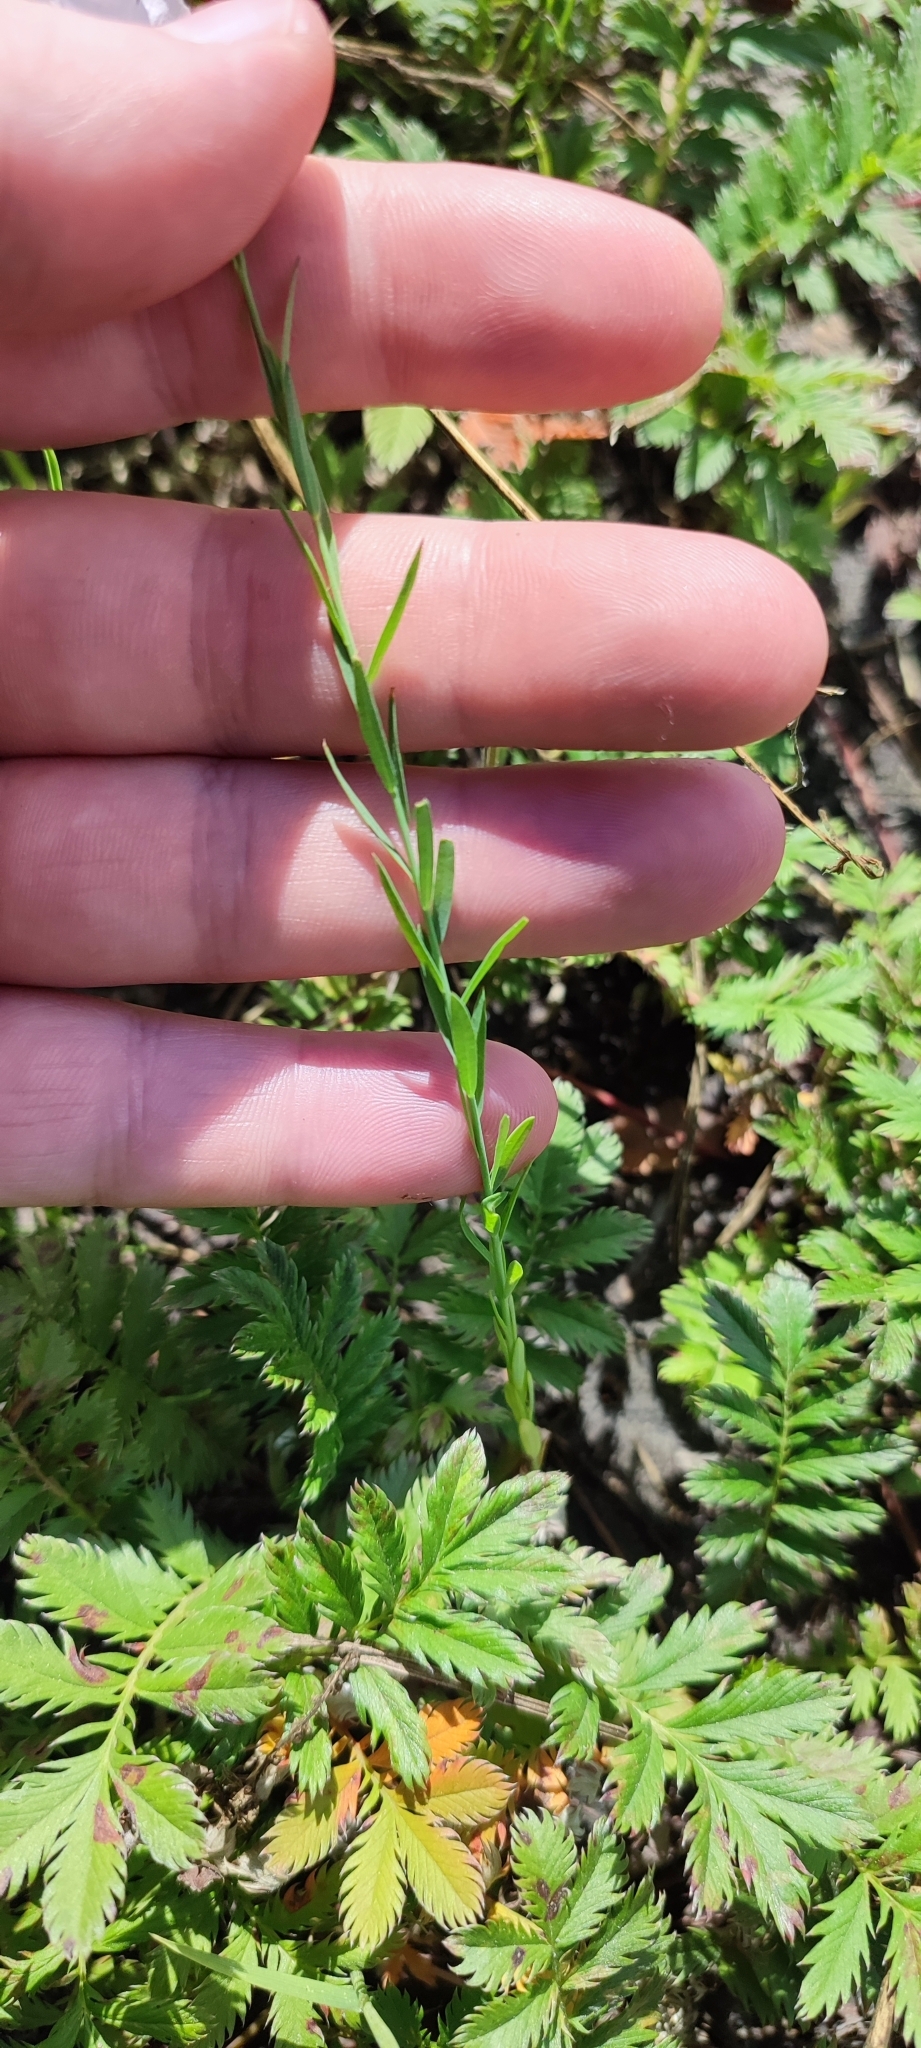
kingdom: Plantae
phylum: Tracheophyta
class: Magnoliopsida
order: Malpighiales
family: Linaceae
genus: Linum
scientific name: Linum usitatissimum
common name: Flax
